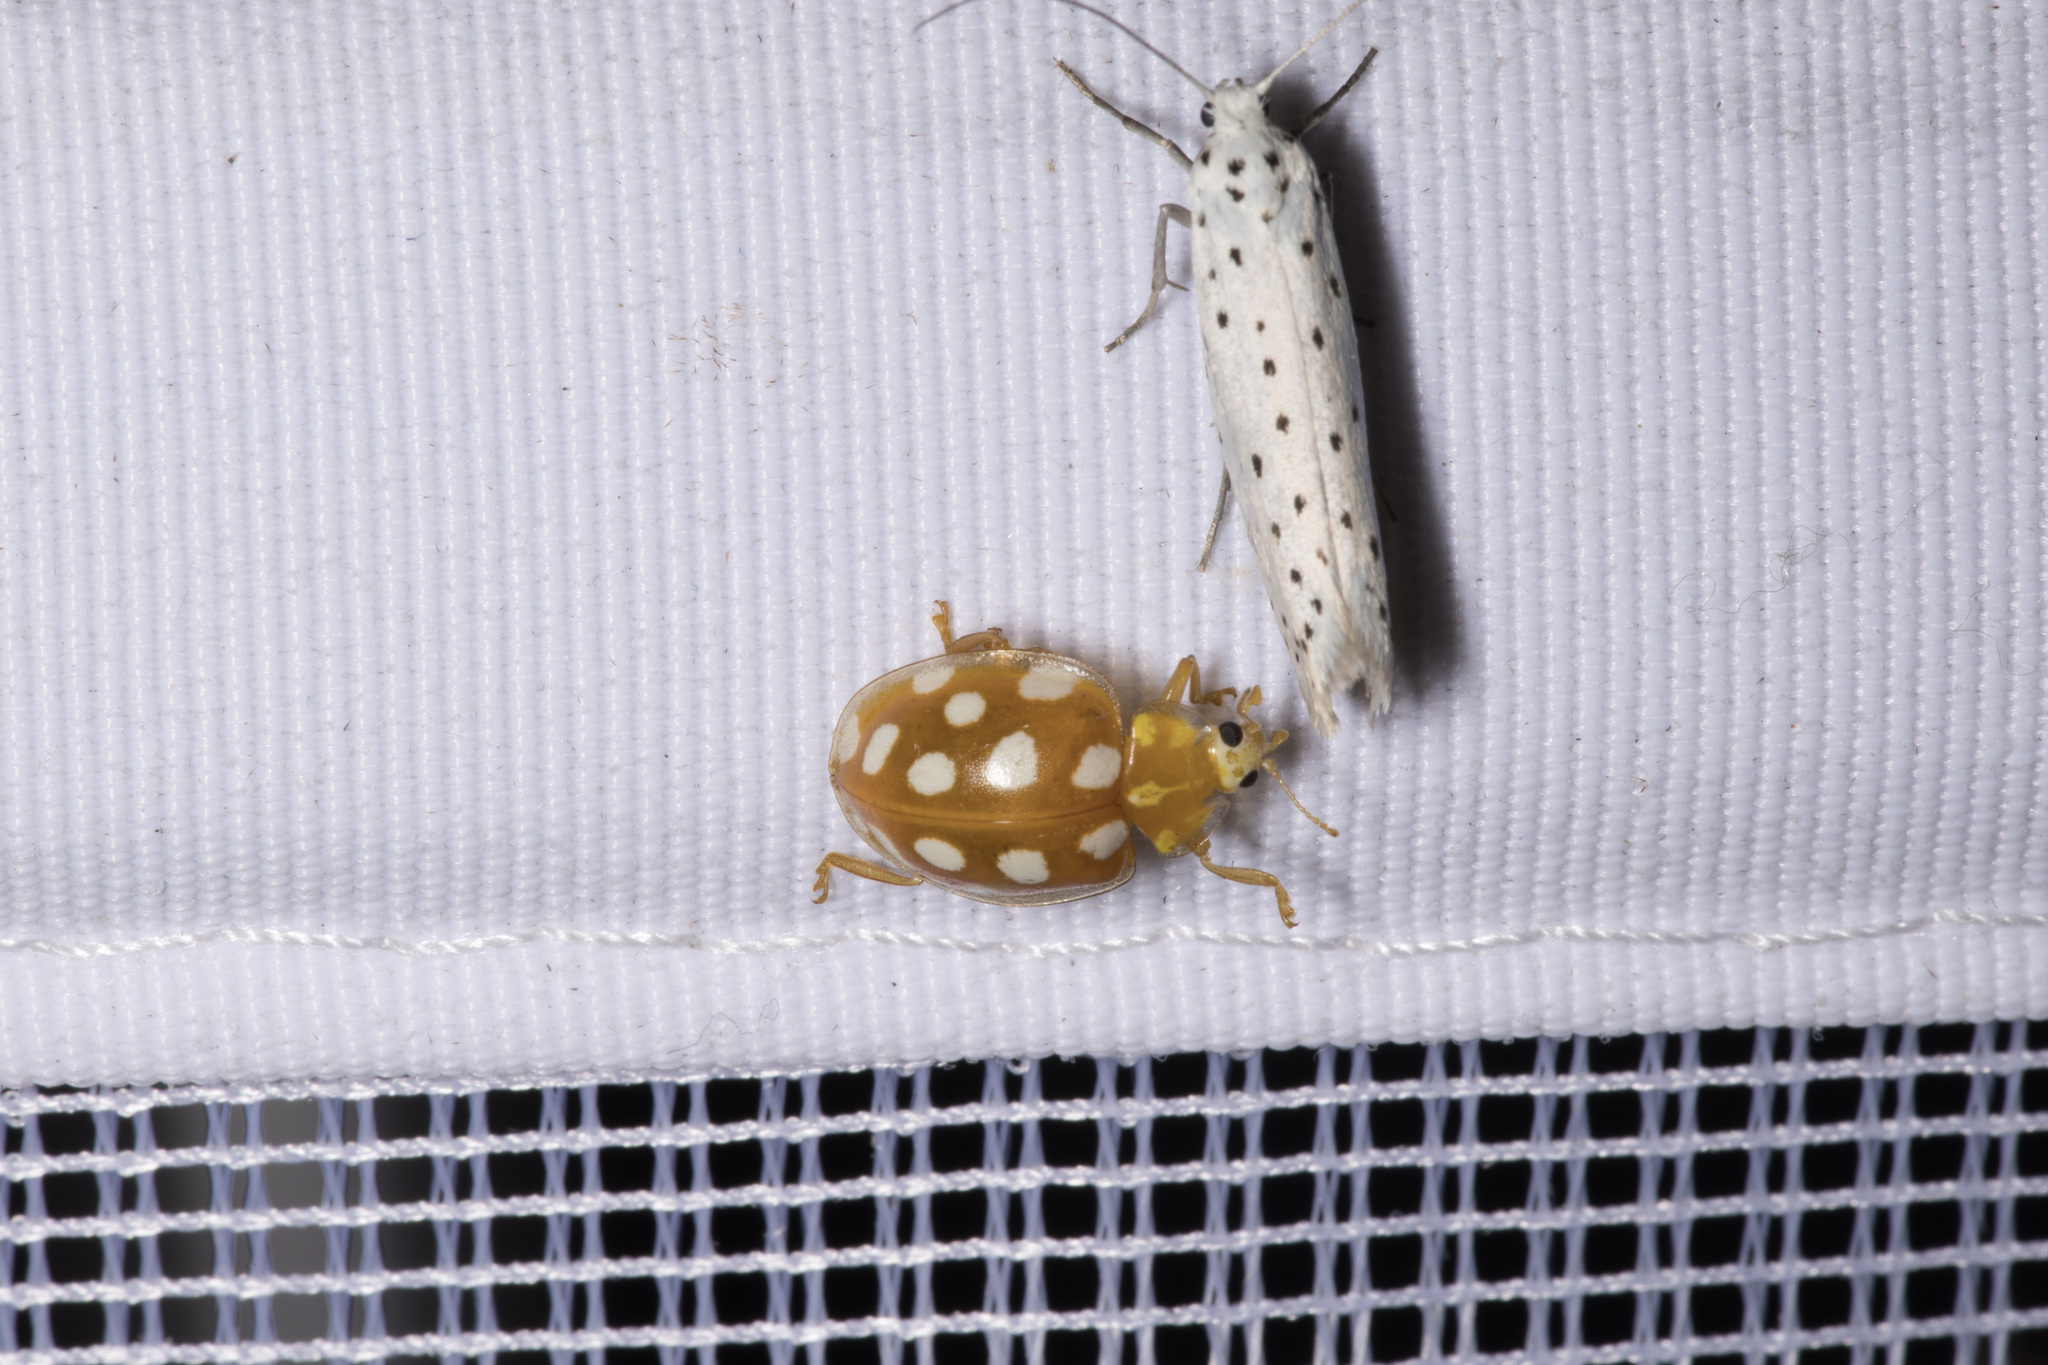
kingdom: Animalia
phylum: Arthropoda
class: Insecta
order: Coleoptera
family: Coccinellidae
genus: Halyzia
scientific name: Halyzia sedecimguttata
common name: Orange ladybird
